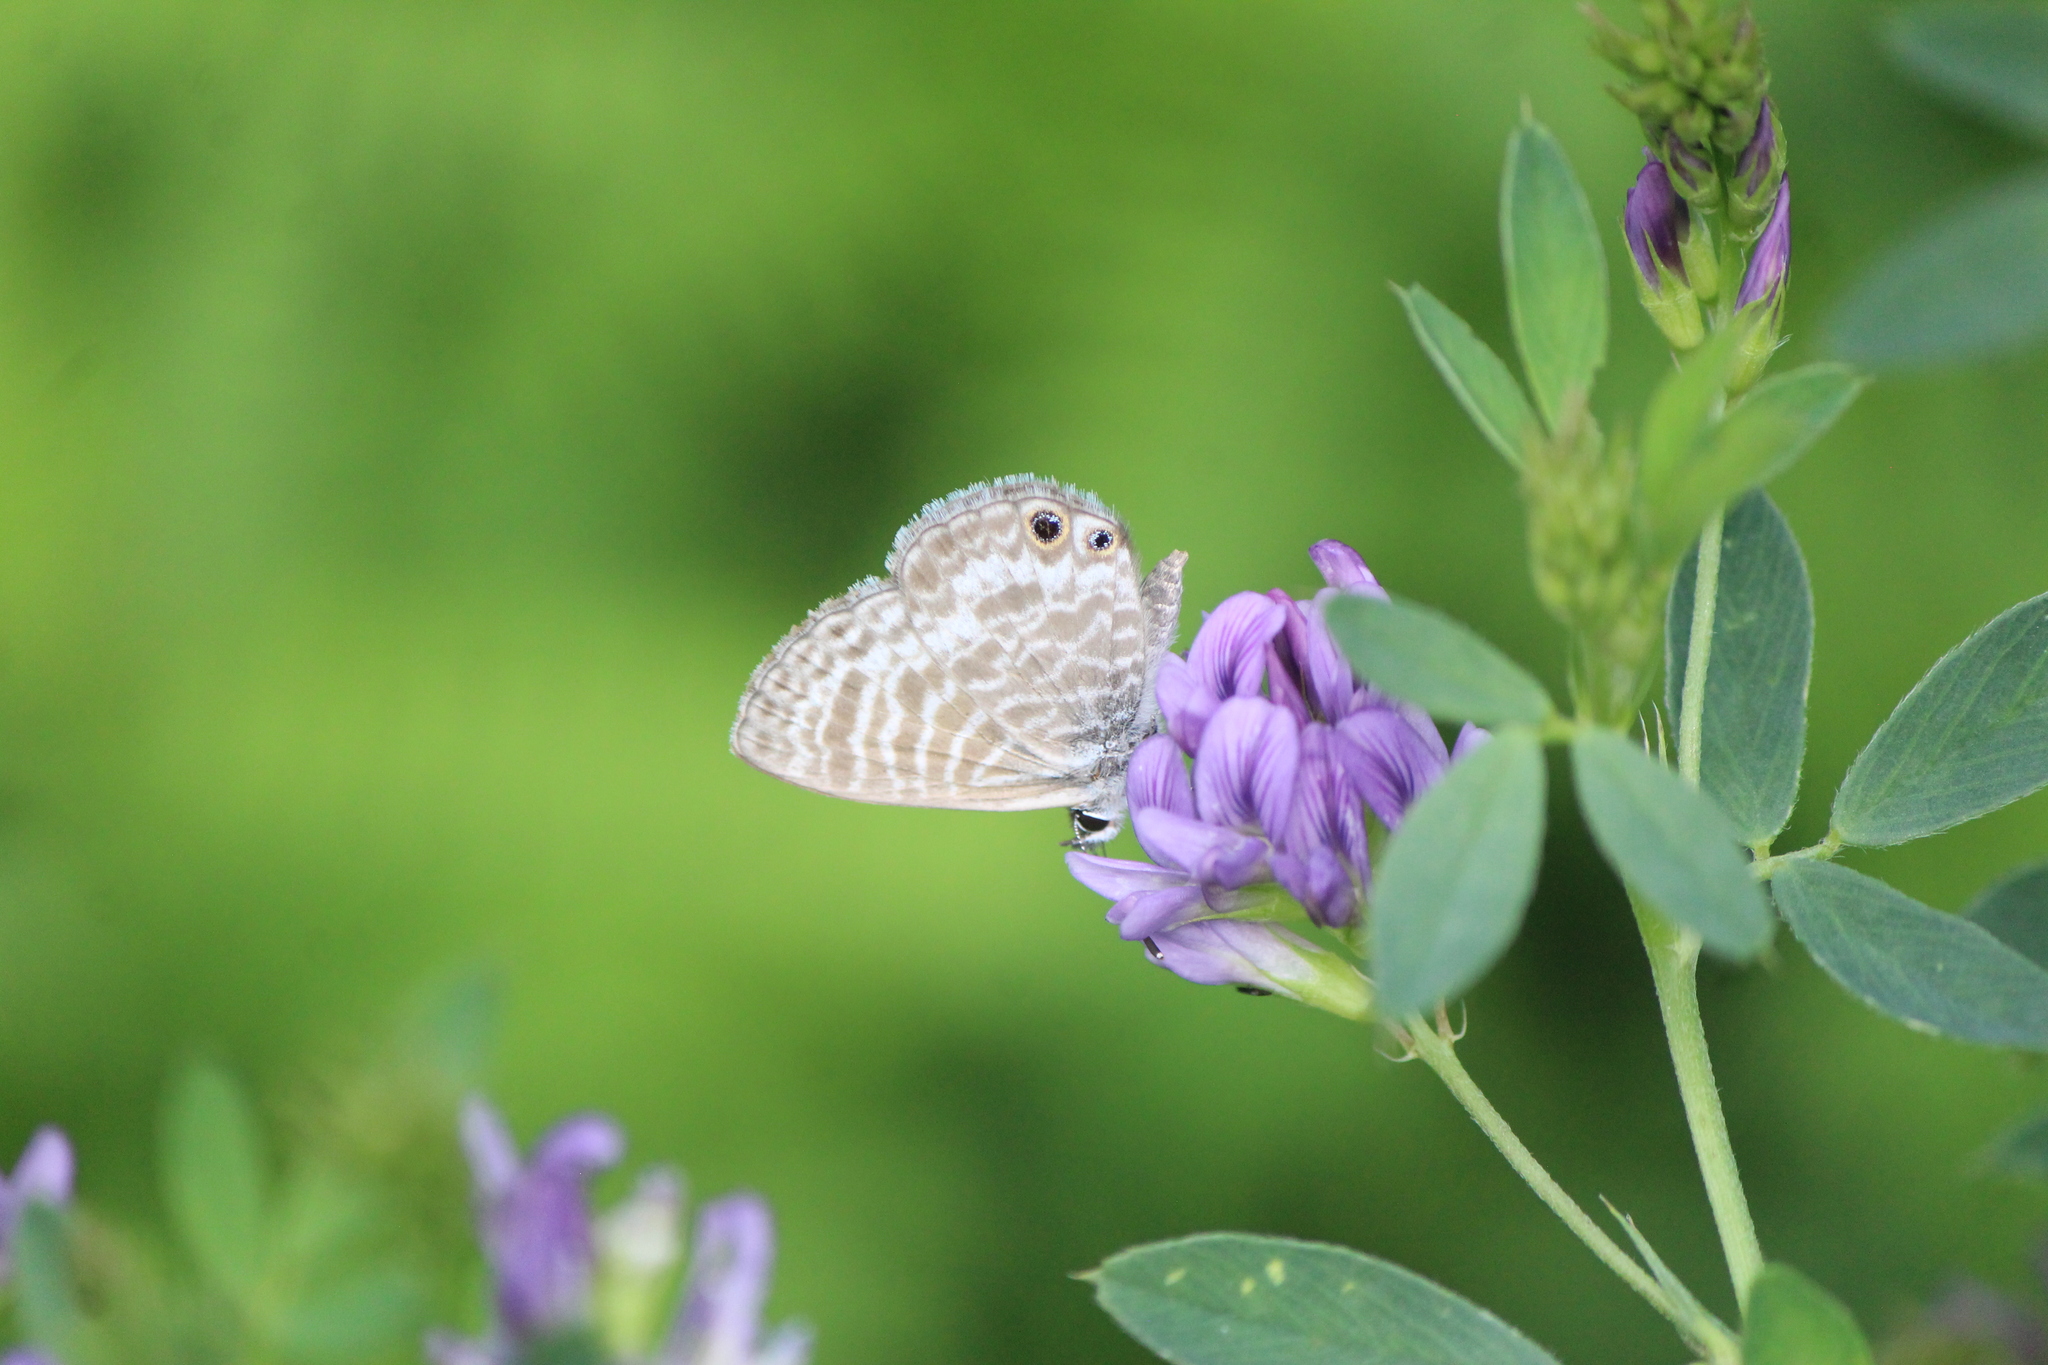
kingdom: Animalia
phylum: Arthropoda
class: Insecta
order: Lepidoptera
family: Lycaenidae
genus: Leptotes
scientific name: Leptotes marina
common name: Marine blue
